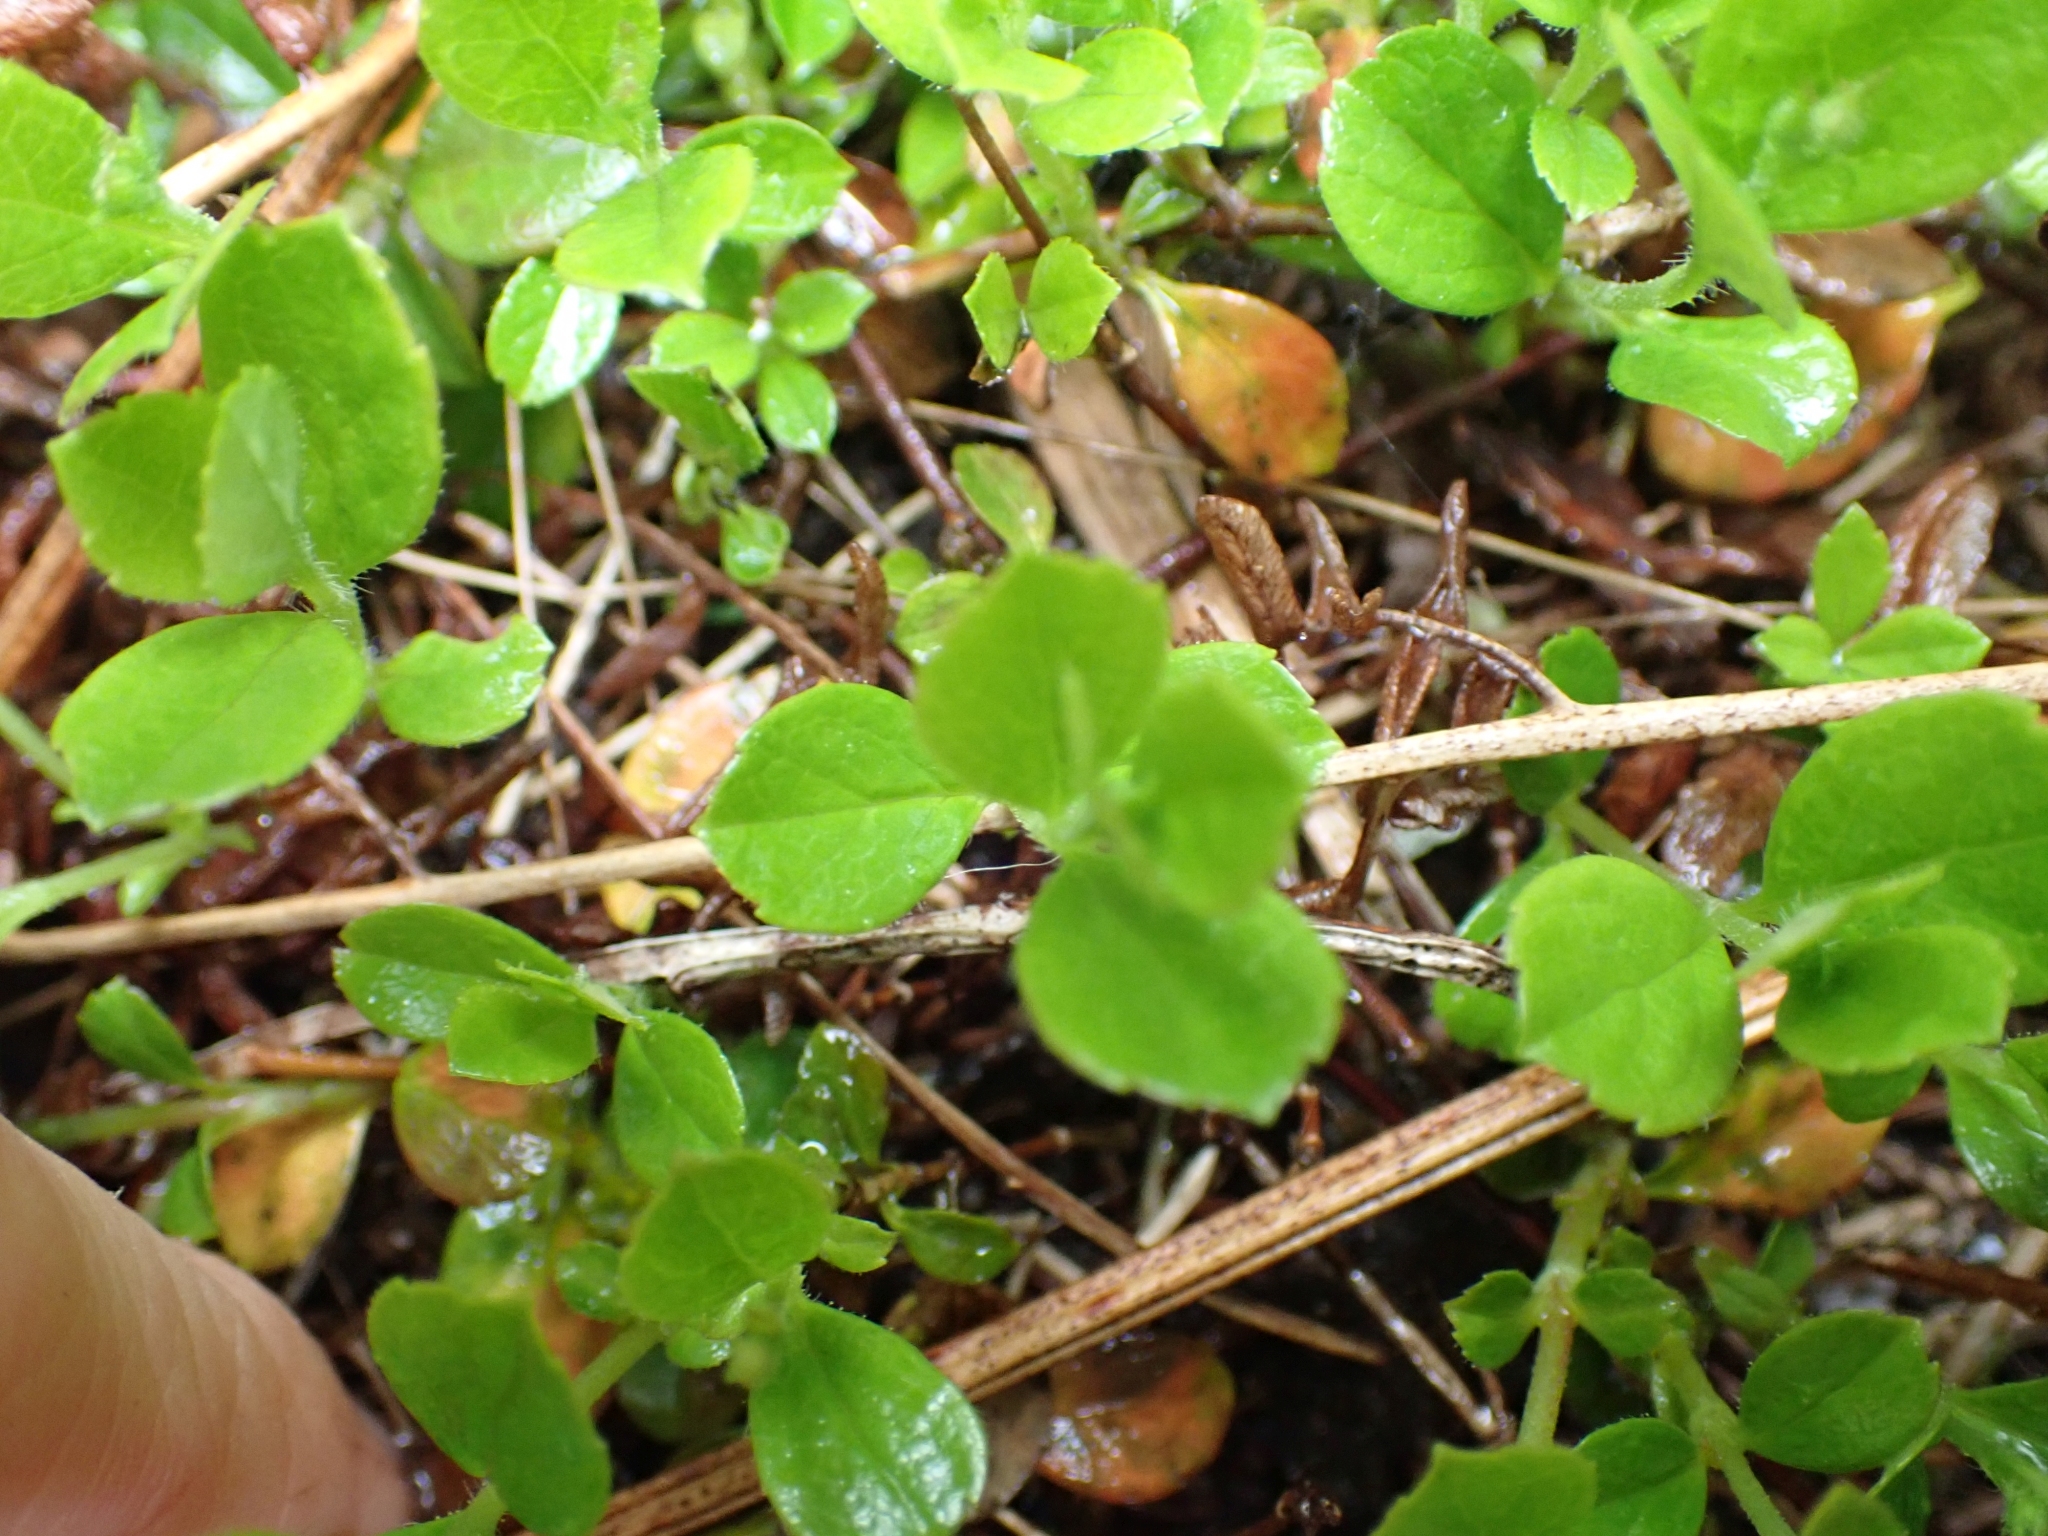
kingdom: Plantae
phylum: Tracheophyta
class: Magnoliopsida
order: Dipsacales
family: Caprifoliaceae
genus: Linnaea
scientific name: Linnaea borealis
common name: Twinflower
